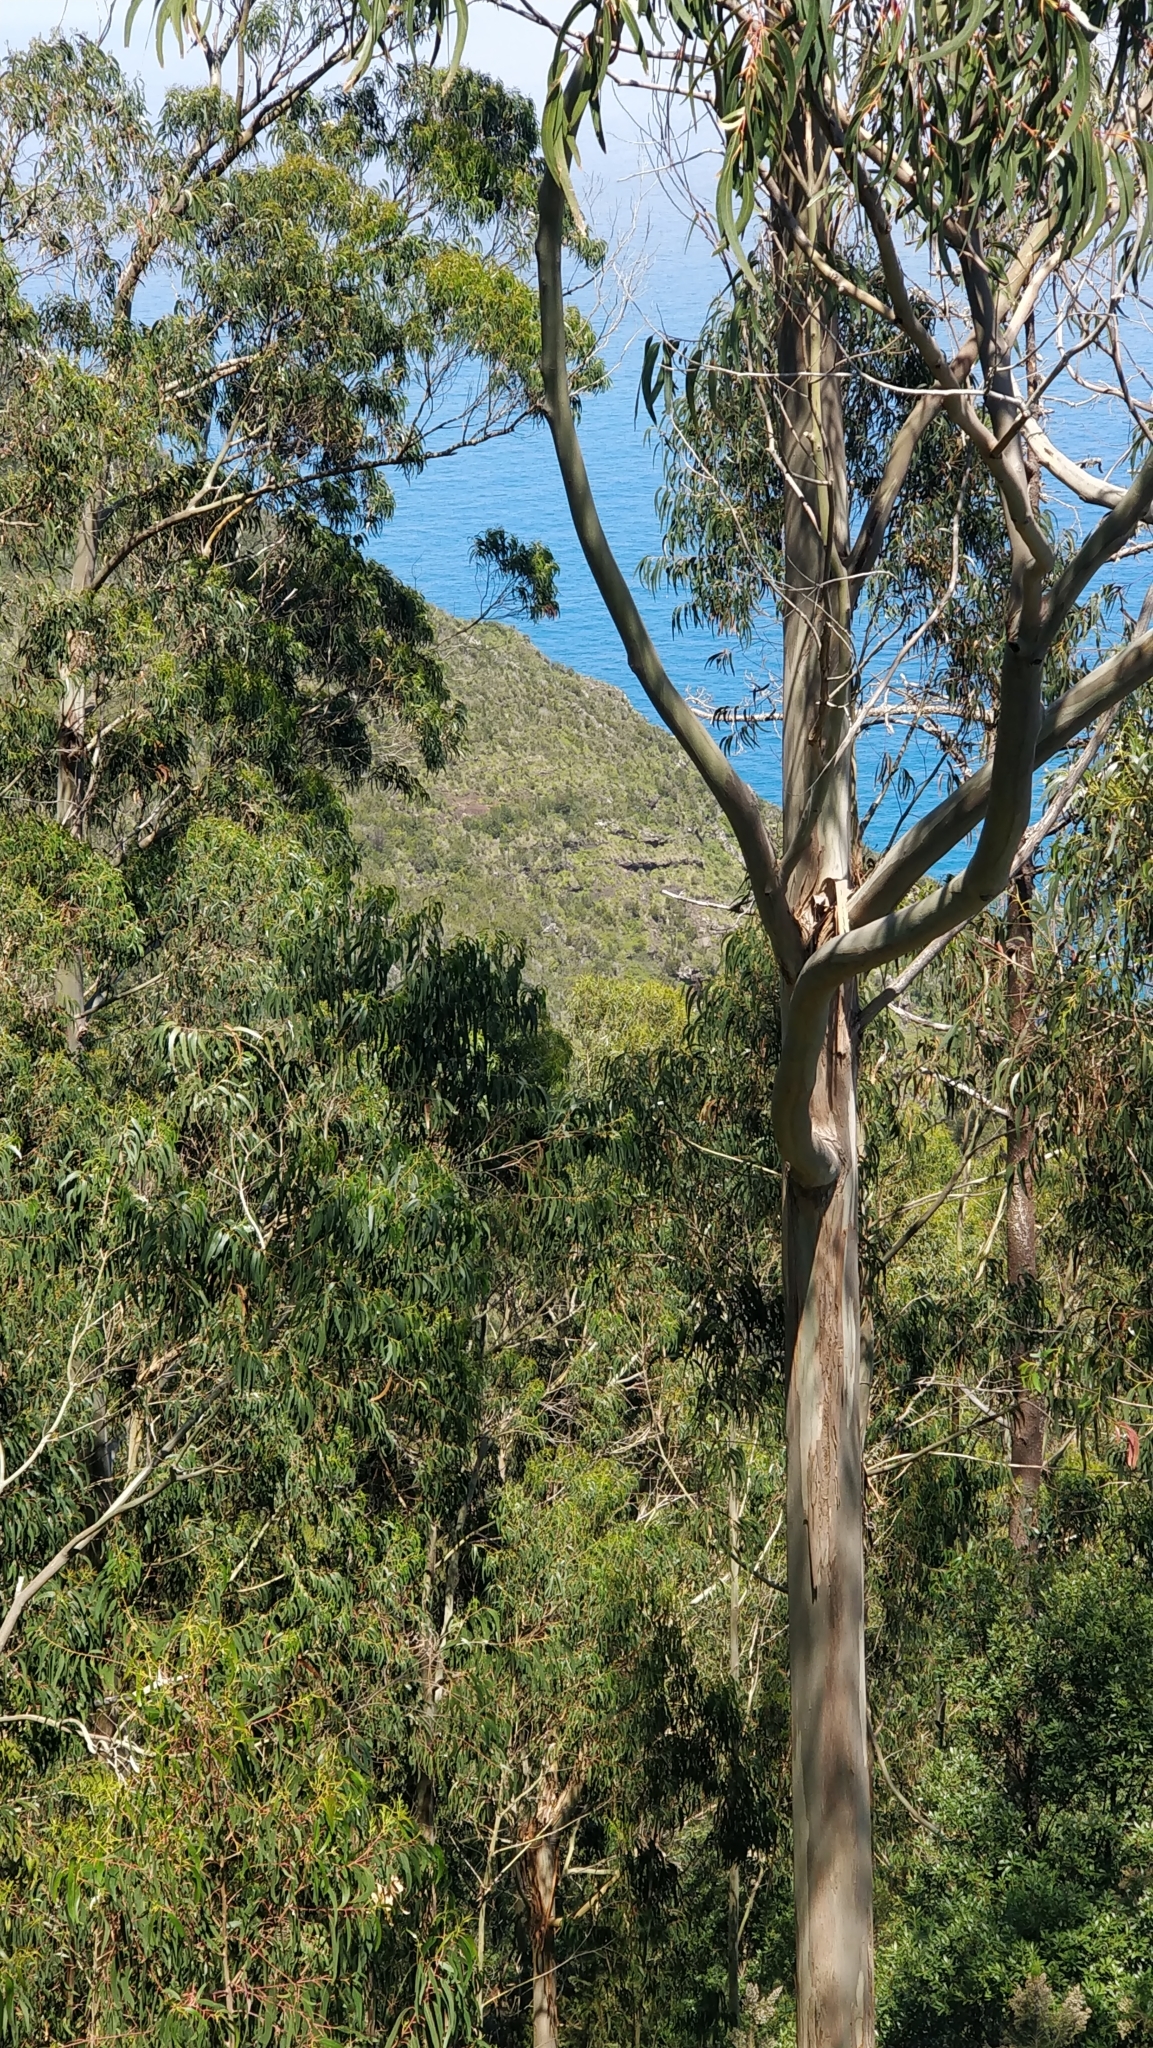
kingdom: Plantae
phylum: Tracheophyta
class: Magnoliopsida
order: Myrtales
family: Myrtaceae
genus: Eucalyptus
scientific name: Eucalyptus globulus
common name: Southern blue-gum
